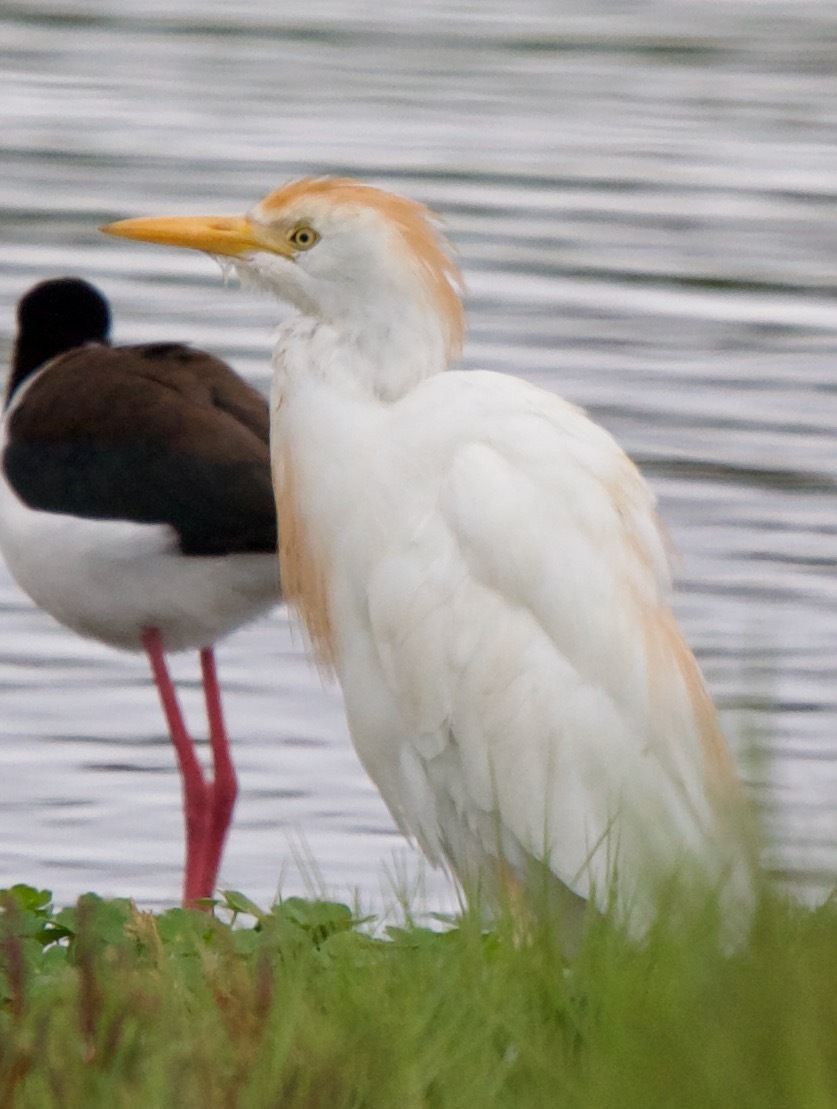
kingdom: Animalia
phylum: Chordata
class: Aves
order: Pelecaniformes
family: Ardeidae
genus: Bubulcus
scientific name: Bubulcus ibis
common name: Cattle egret
